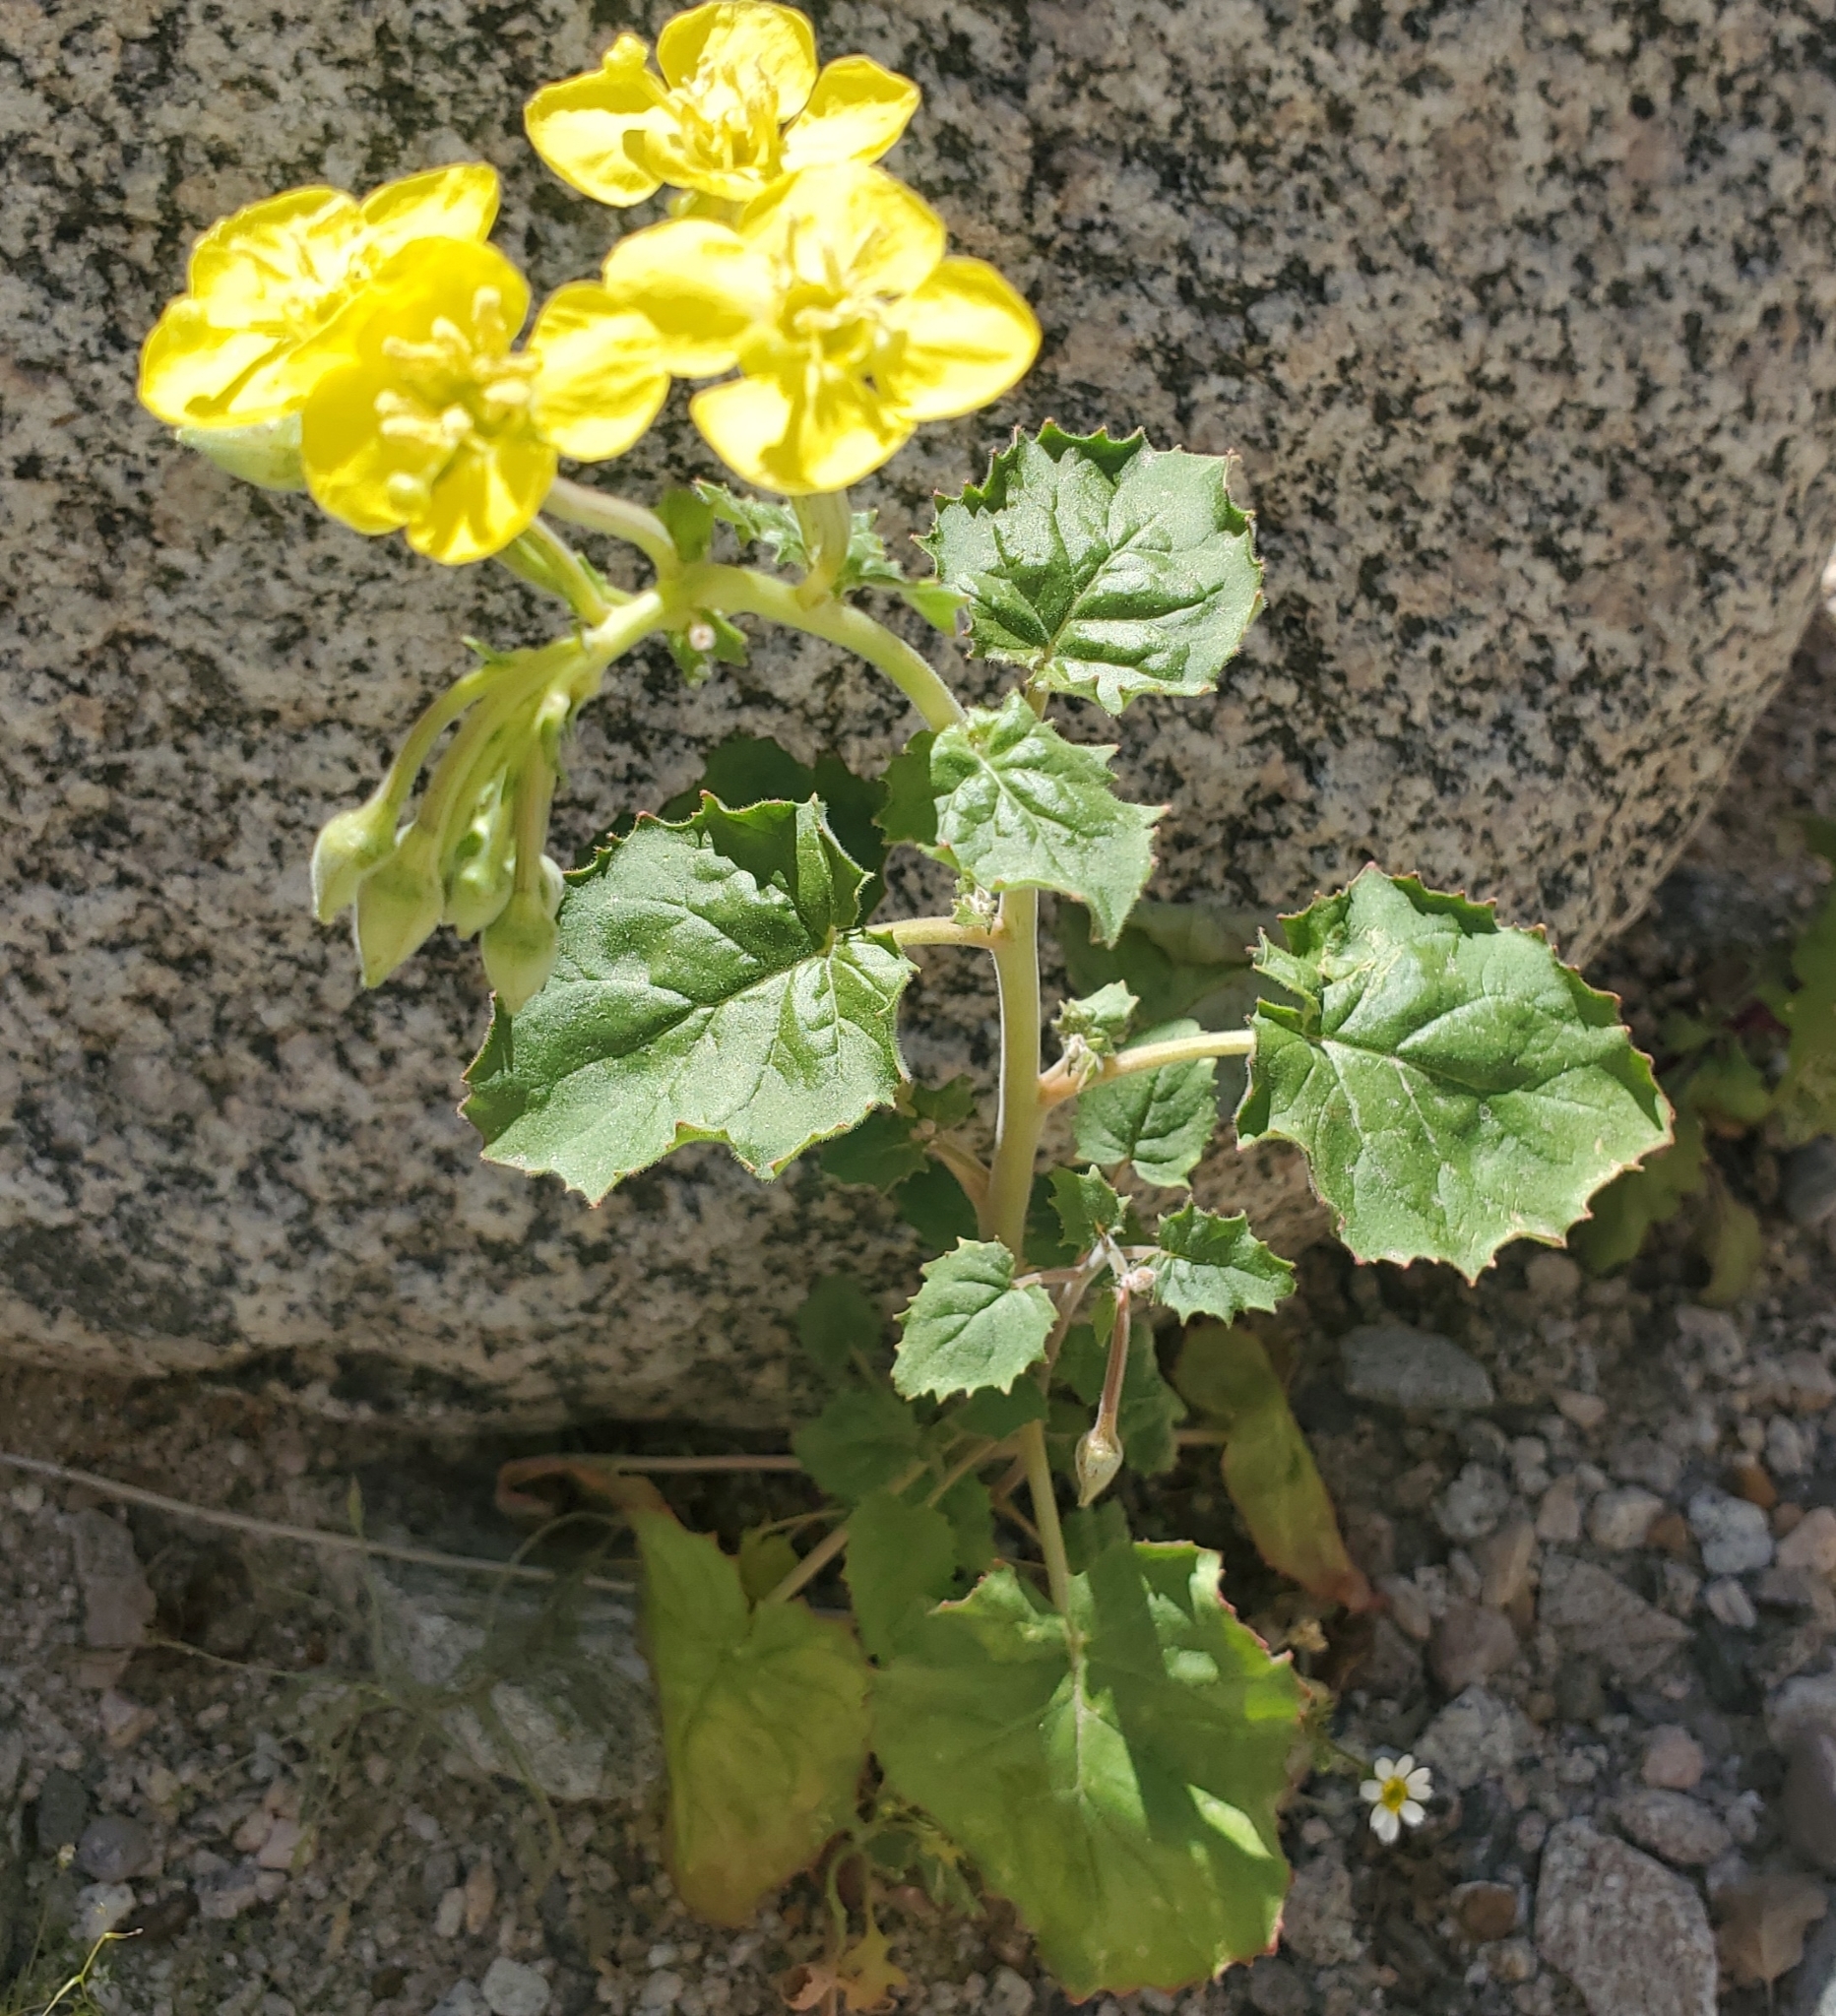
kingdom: Plantae
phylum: Tracheophyta
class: Magnoliopsida
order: Myrtales
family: Onagraceae
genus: Chylismia
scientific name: Chylismia cardiophylla
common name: Heartleaf suncup
